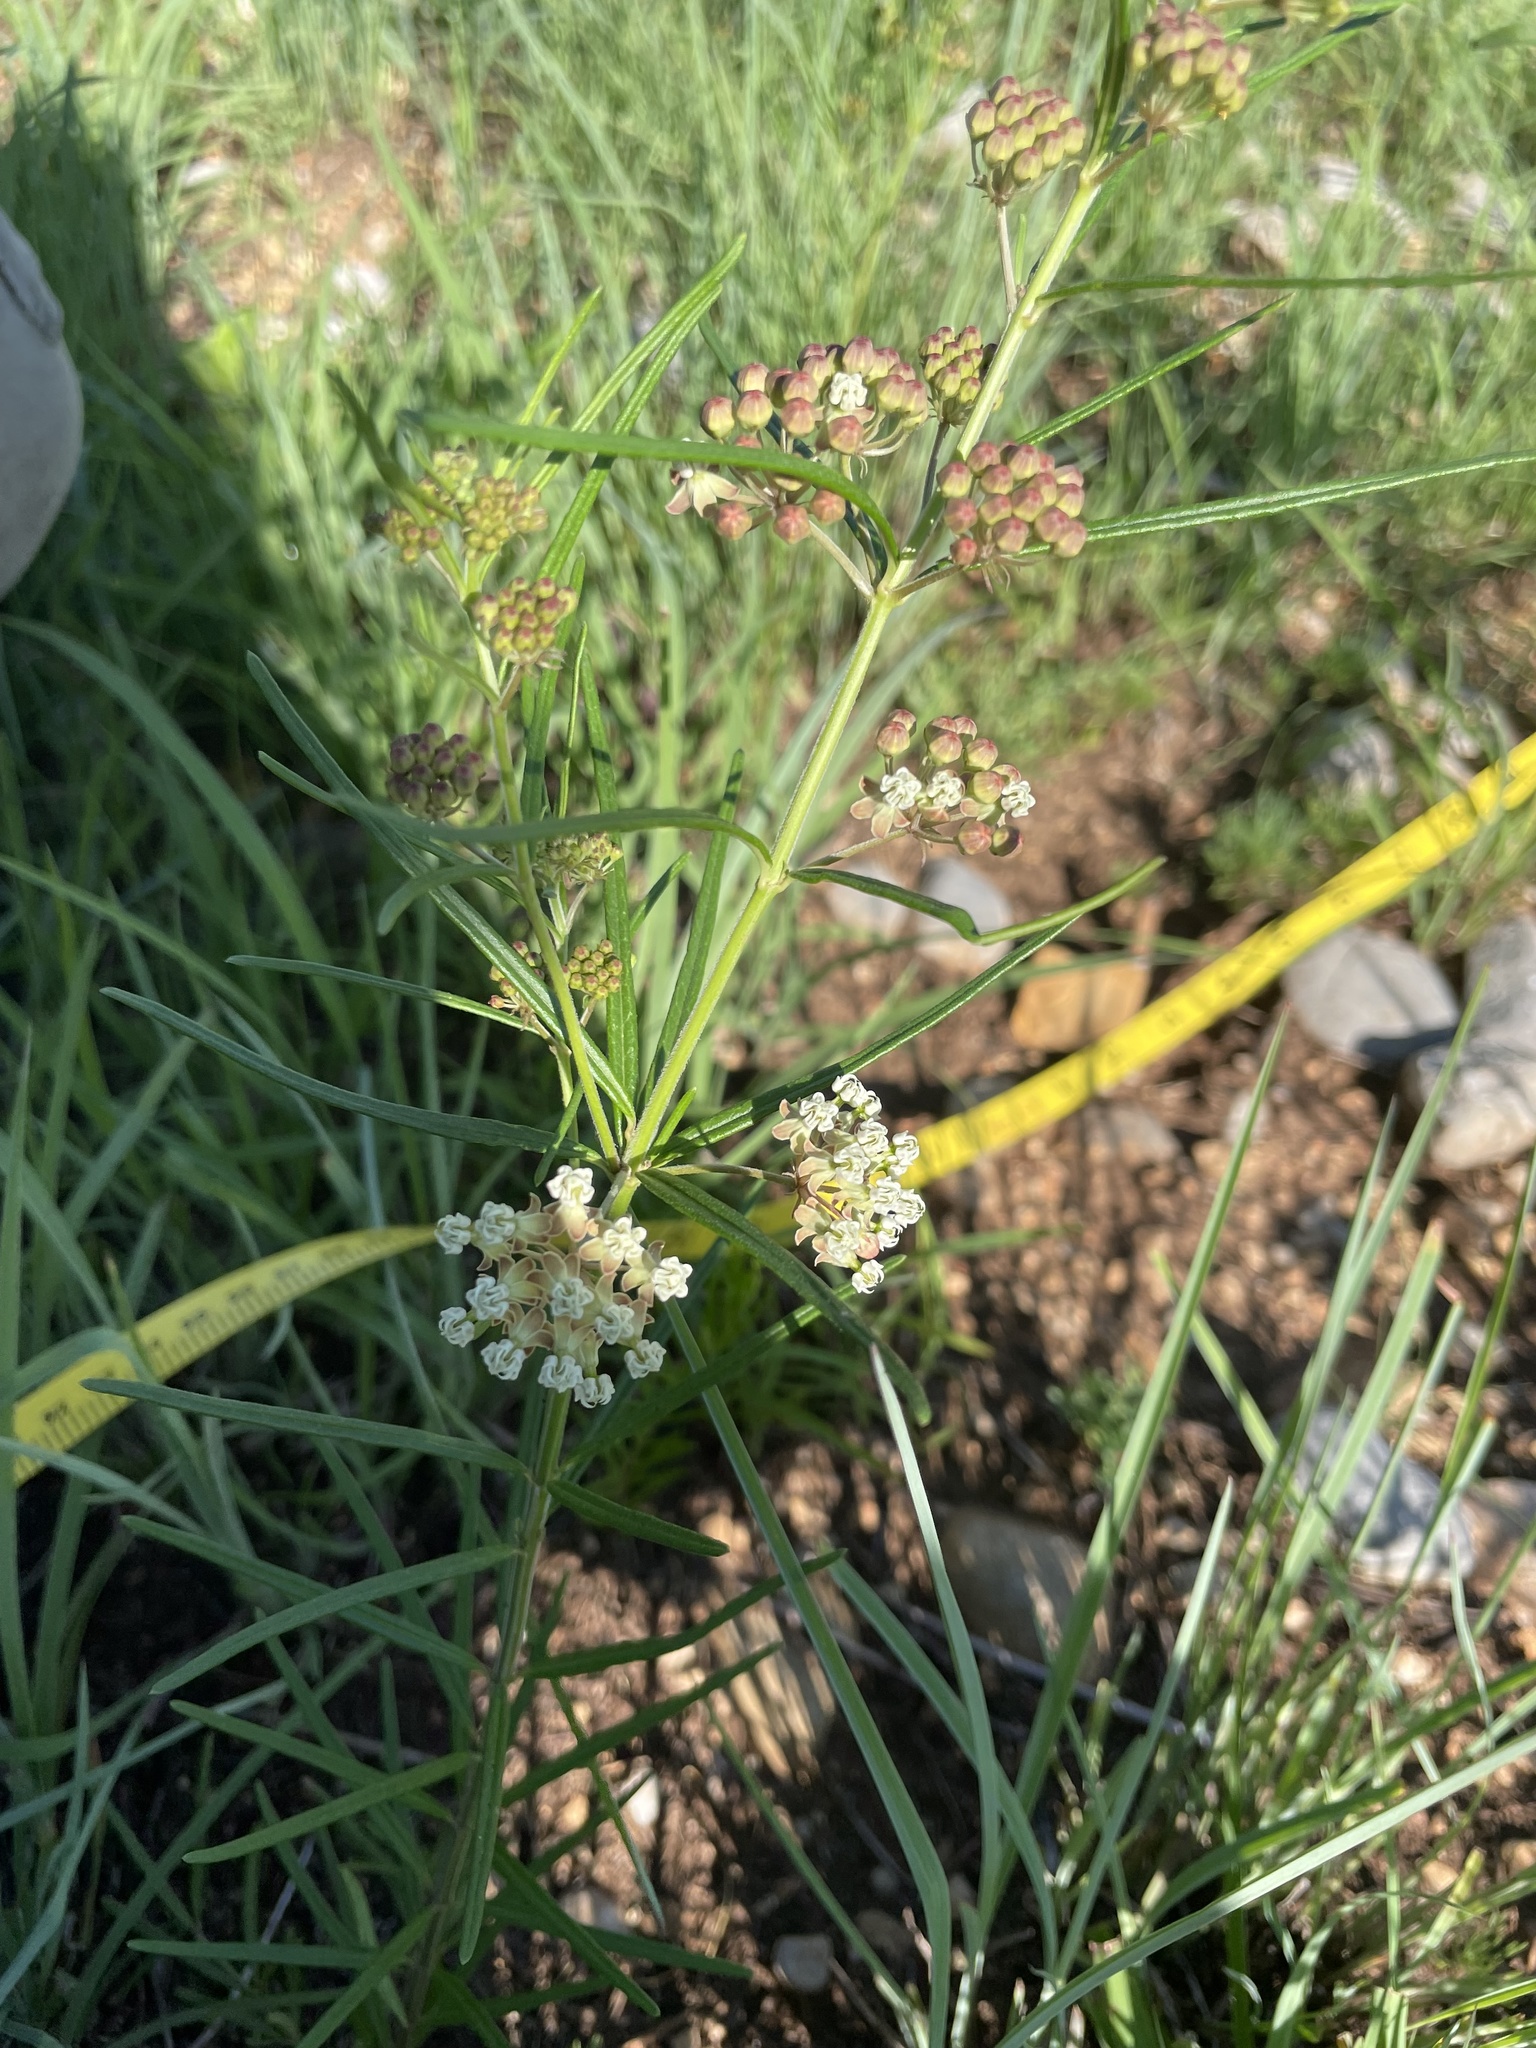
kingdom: Plantae
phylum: Tracheophyta
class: Magnoliopsida
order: Gentianales
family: Apocynaceae
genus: Asclepias
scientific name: Asclepias verticillata
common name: Eastern whorled milkweed
